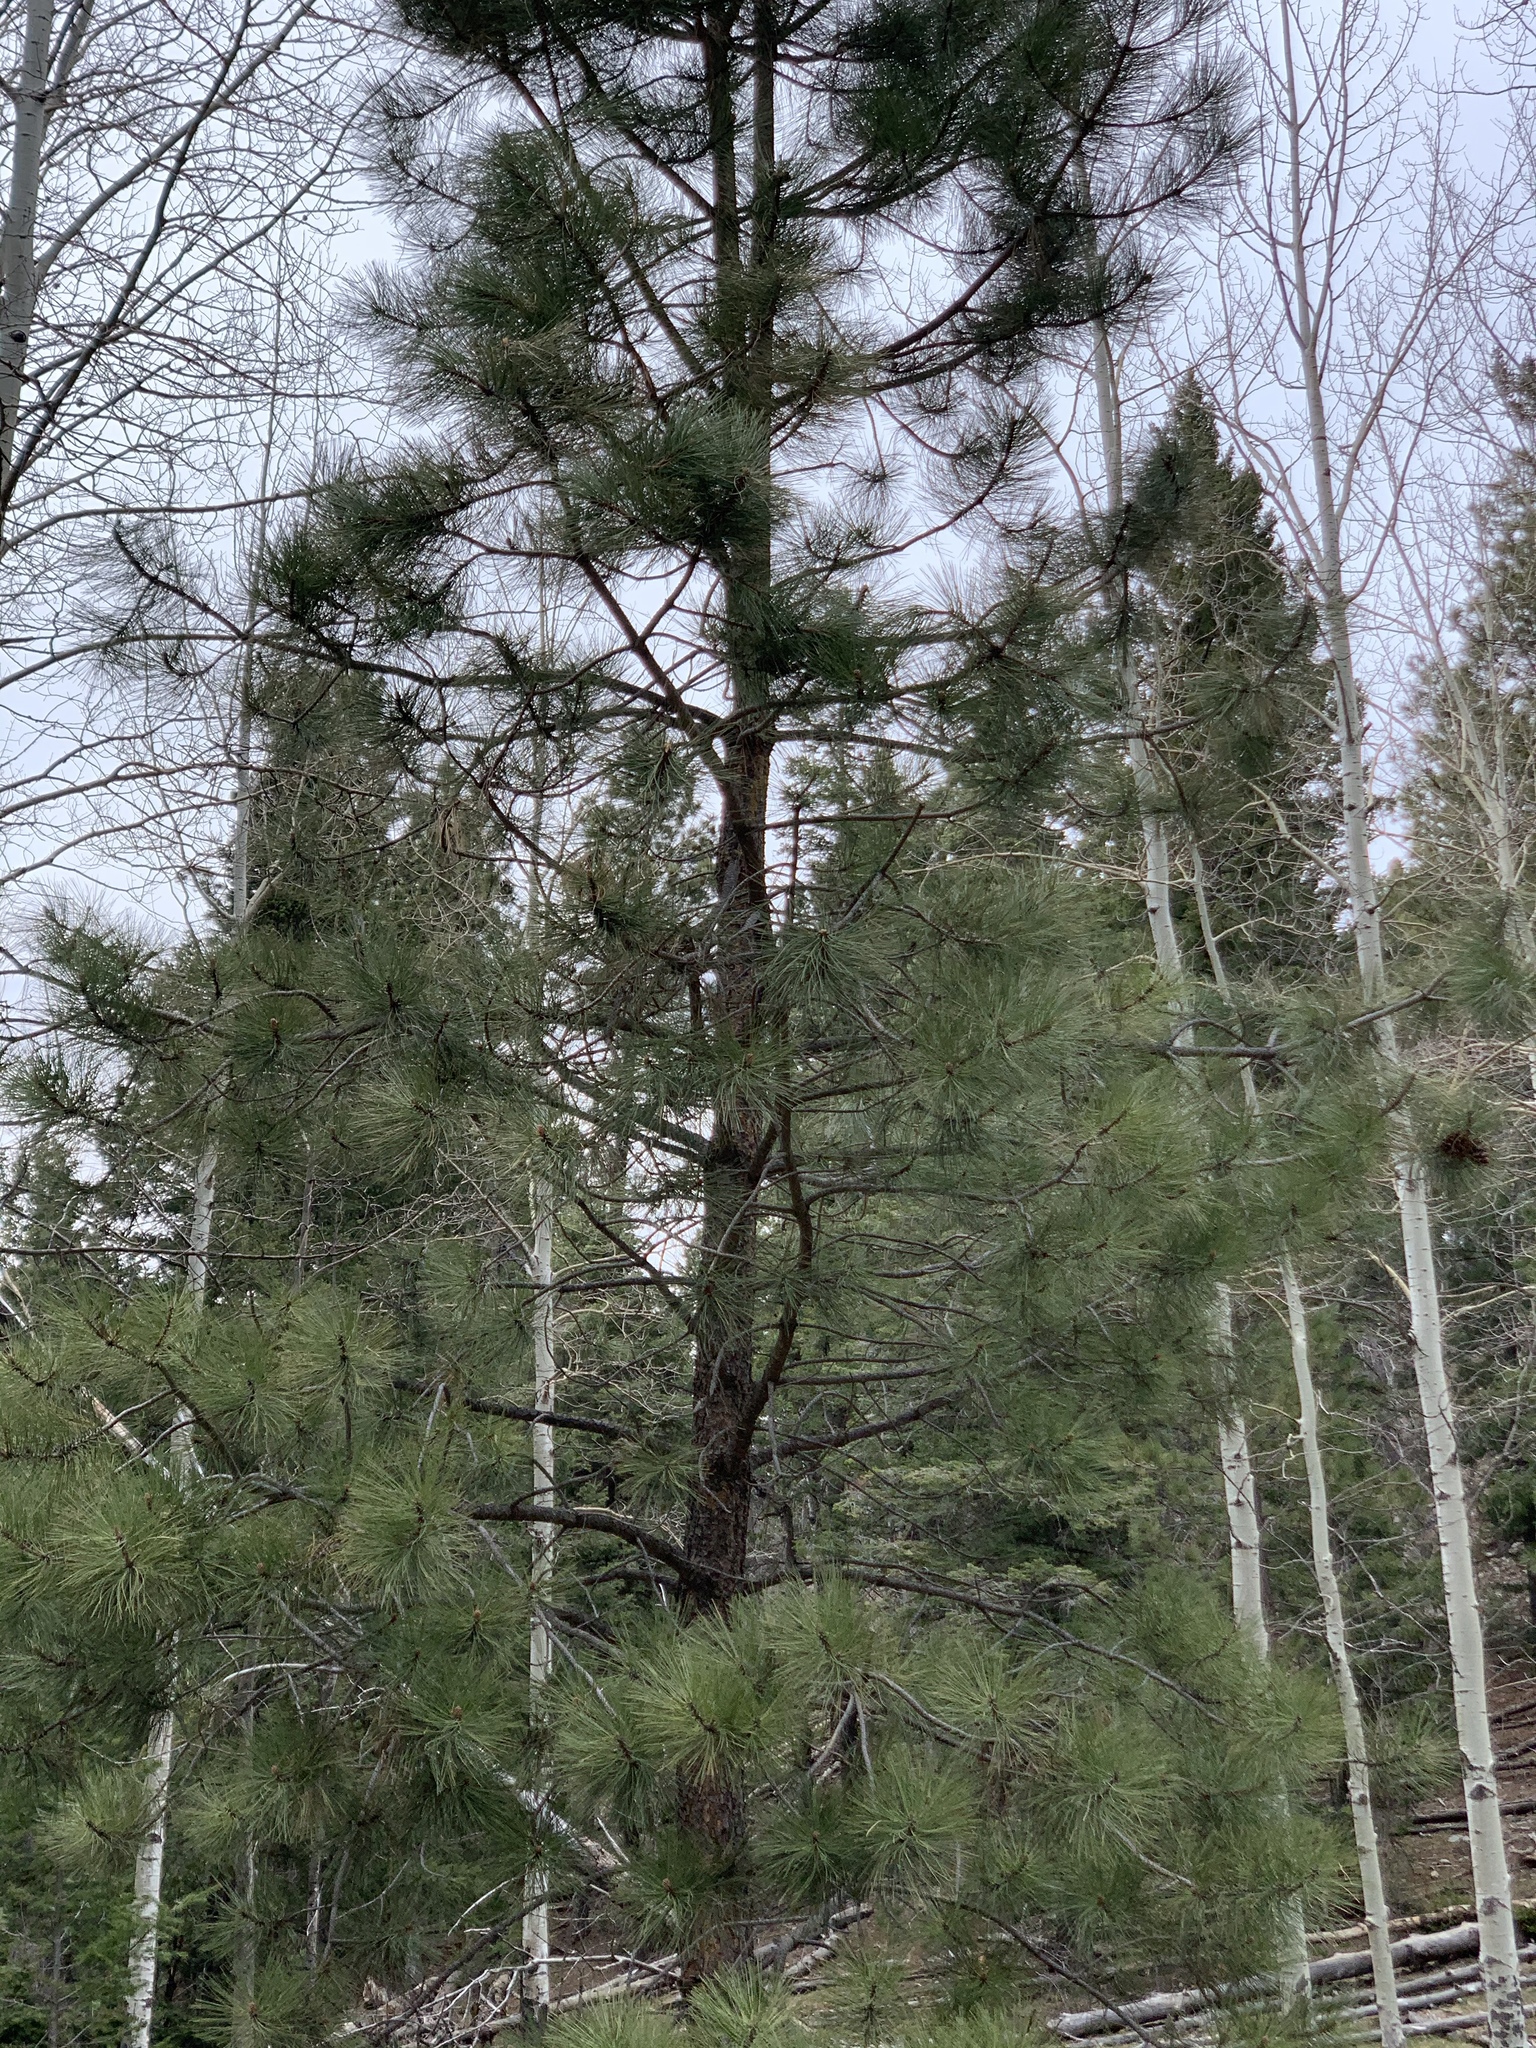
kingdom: Plantae
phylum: Tracheophyta
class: Pinopsida
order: Pinales
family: Pinaceae
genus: Pinus
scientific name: Pinus ponderosa
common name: Western yellow-pine
